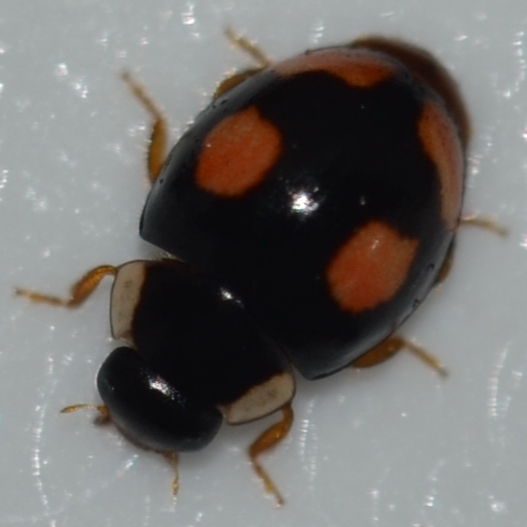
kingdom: Animalia
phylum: Arthropoda
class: Insecta
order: Coleoptera
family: Coccinellidae
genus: Hyperaspis
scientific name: Hyperaspis connectens
